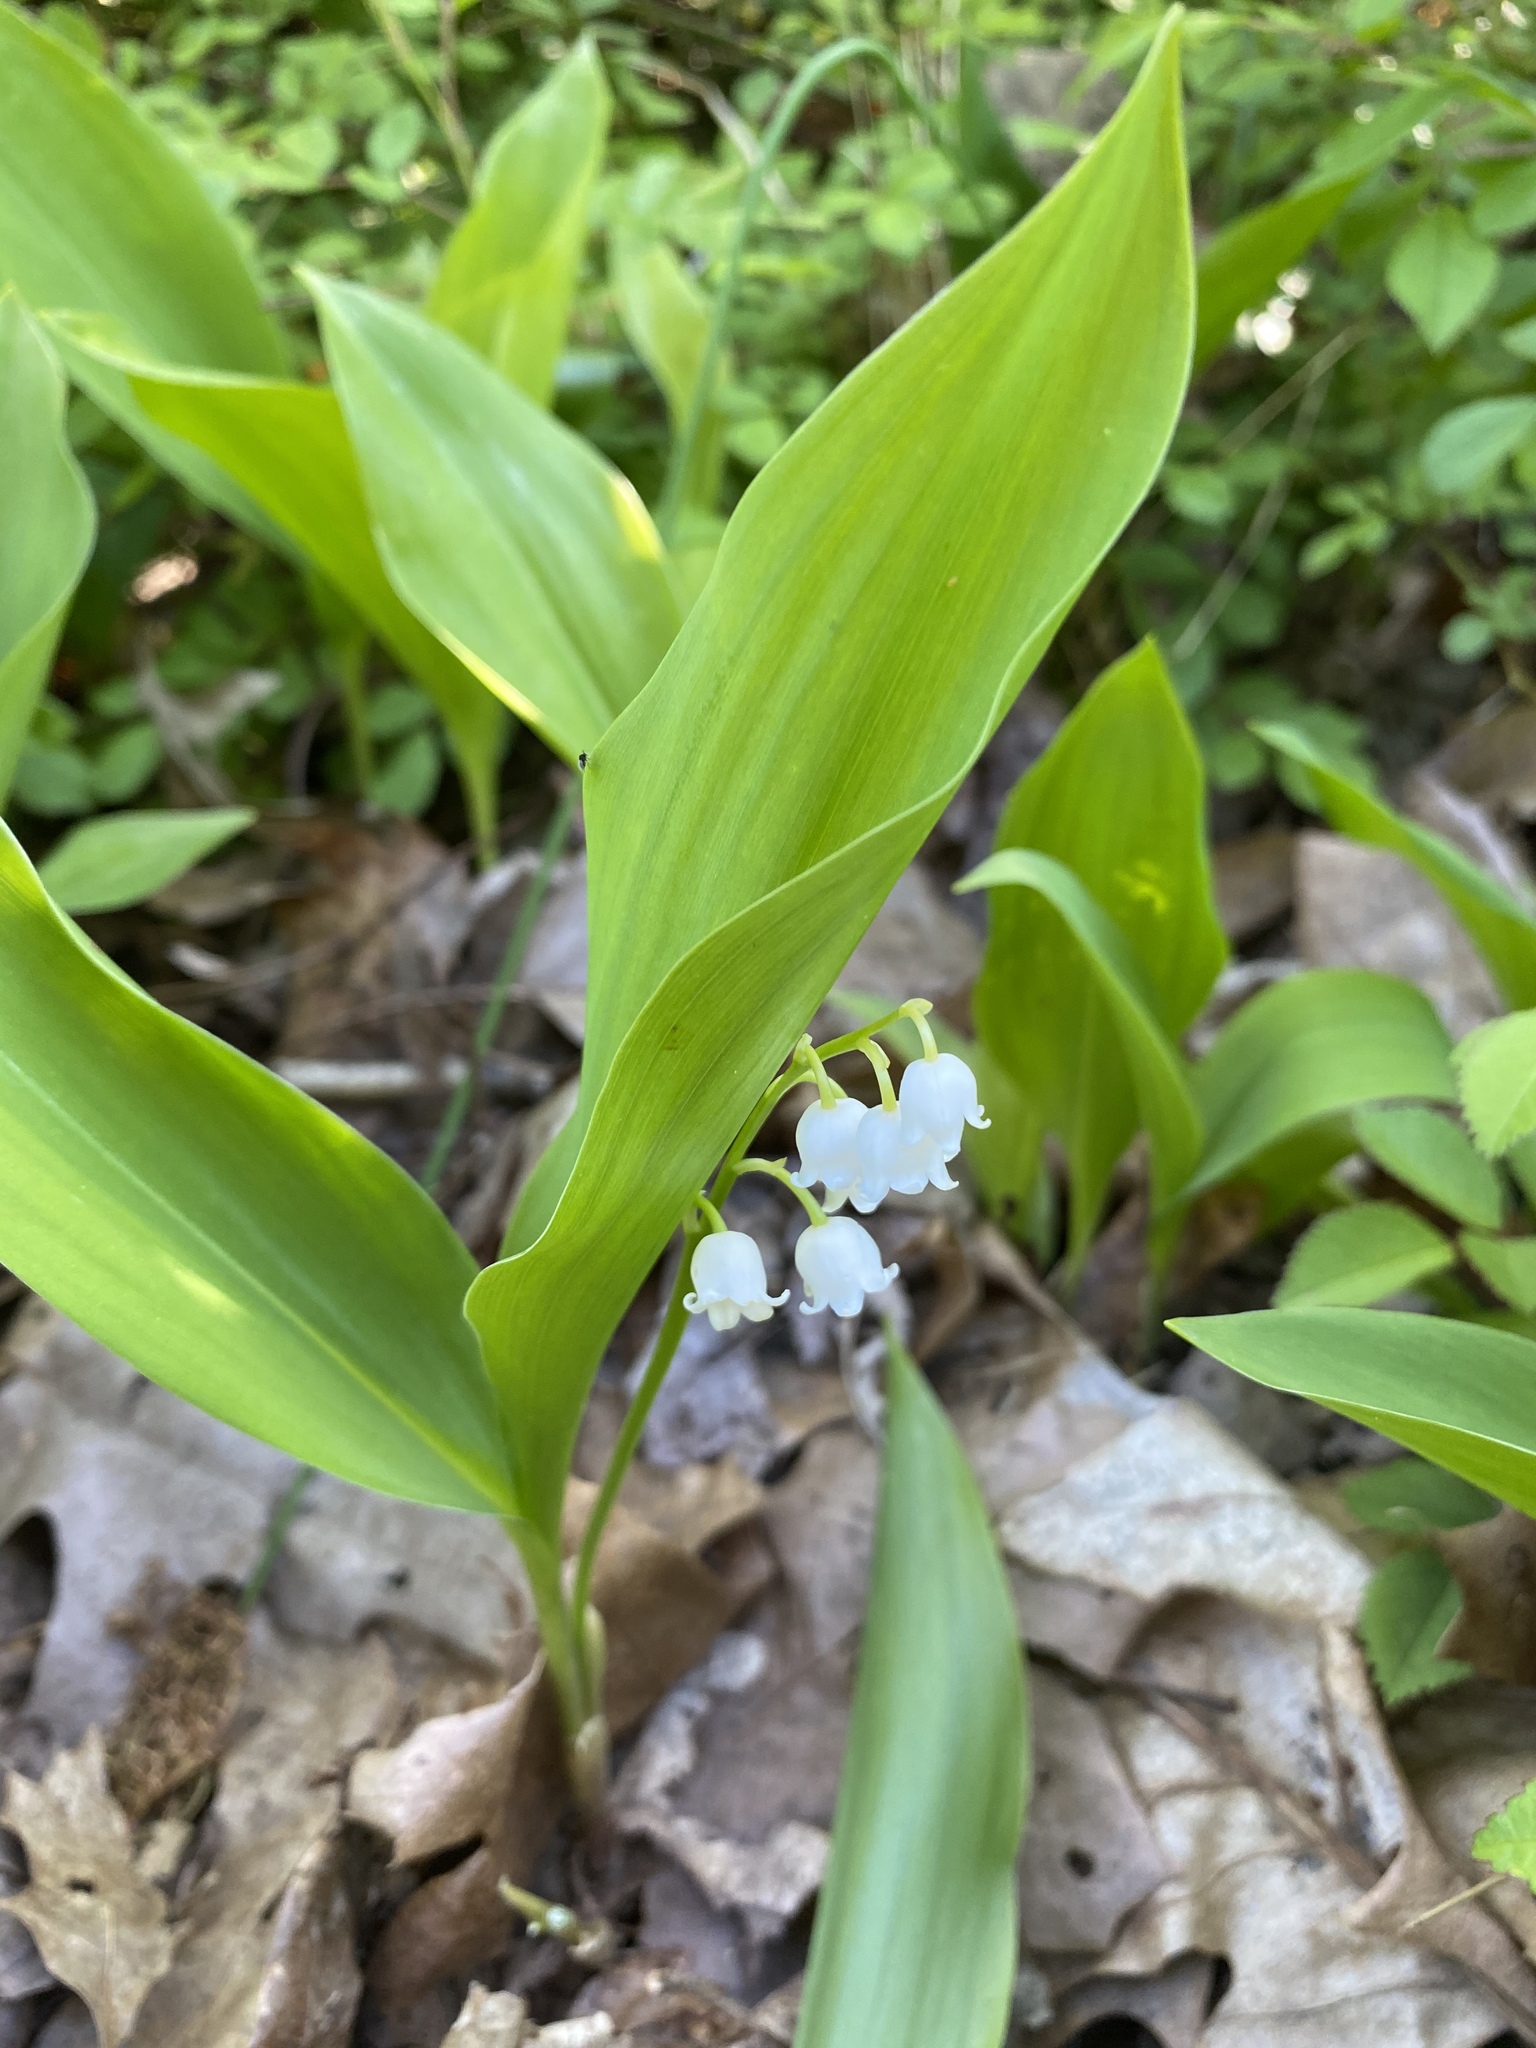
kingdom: Plantae
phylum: Tracheophyta
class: Liliopsida
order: Asparagales
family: Asparagaceae
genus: Convallaria
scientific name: Convallaria majalis
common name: Lily-of-the-valley
